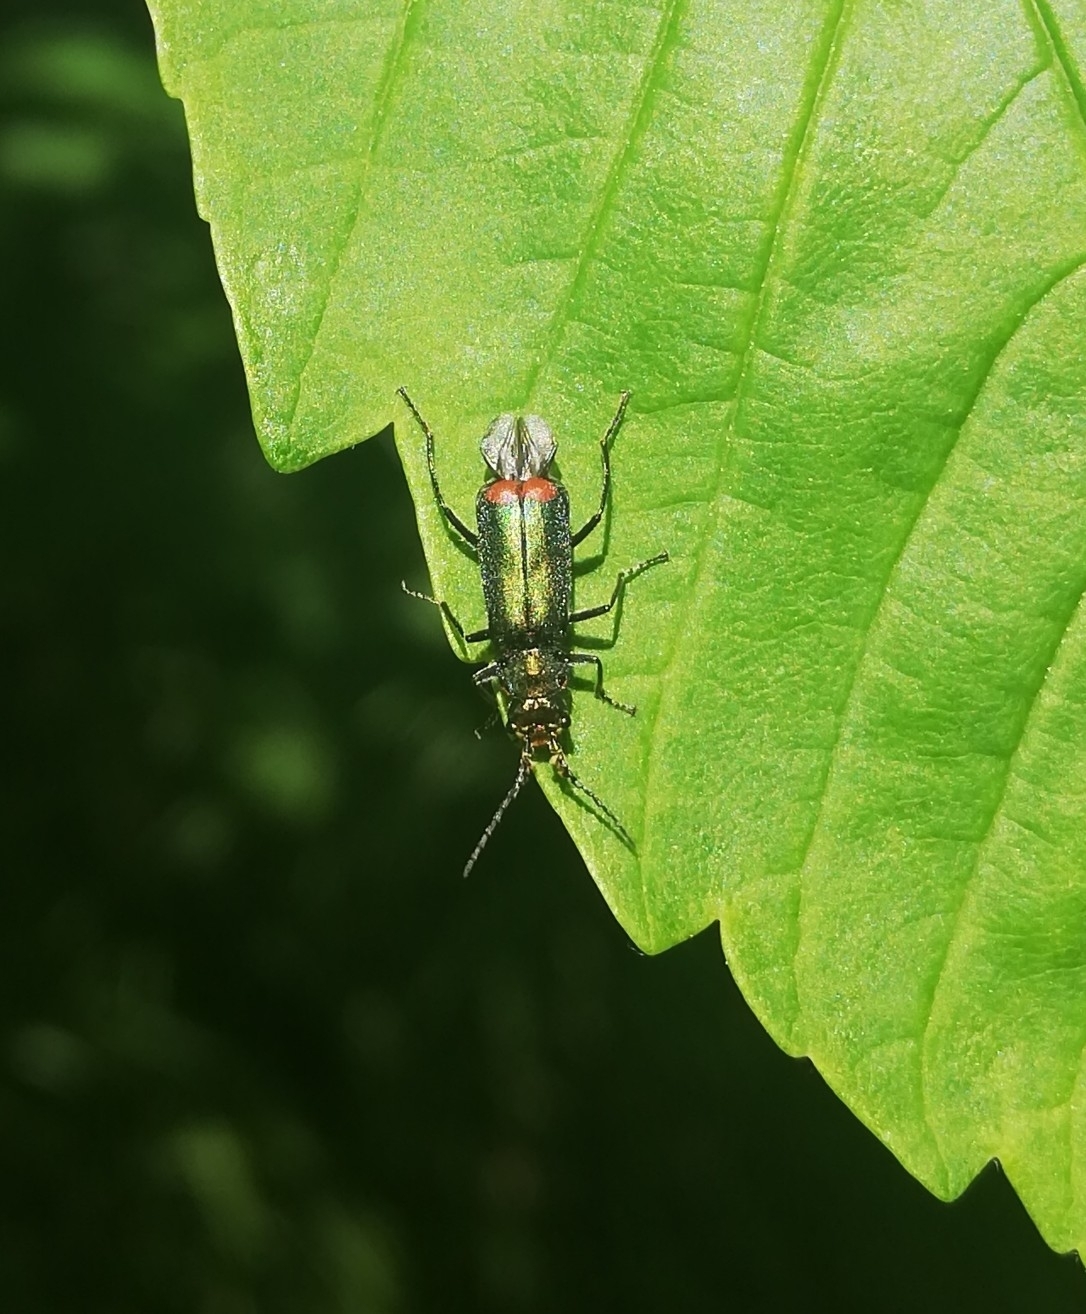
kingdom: Animalia
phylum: Arthropoda
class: Insecta
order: Coleoptera
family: Melyridae
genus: Malachius
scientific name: Malachius bipustulatus
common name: Malachite beetle
